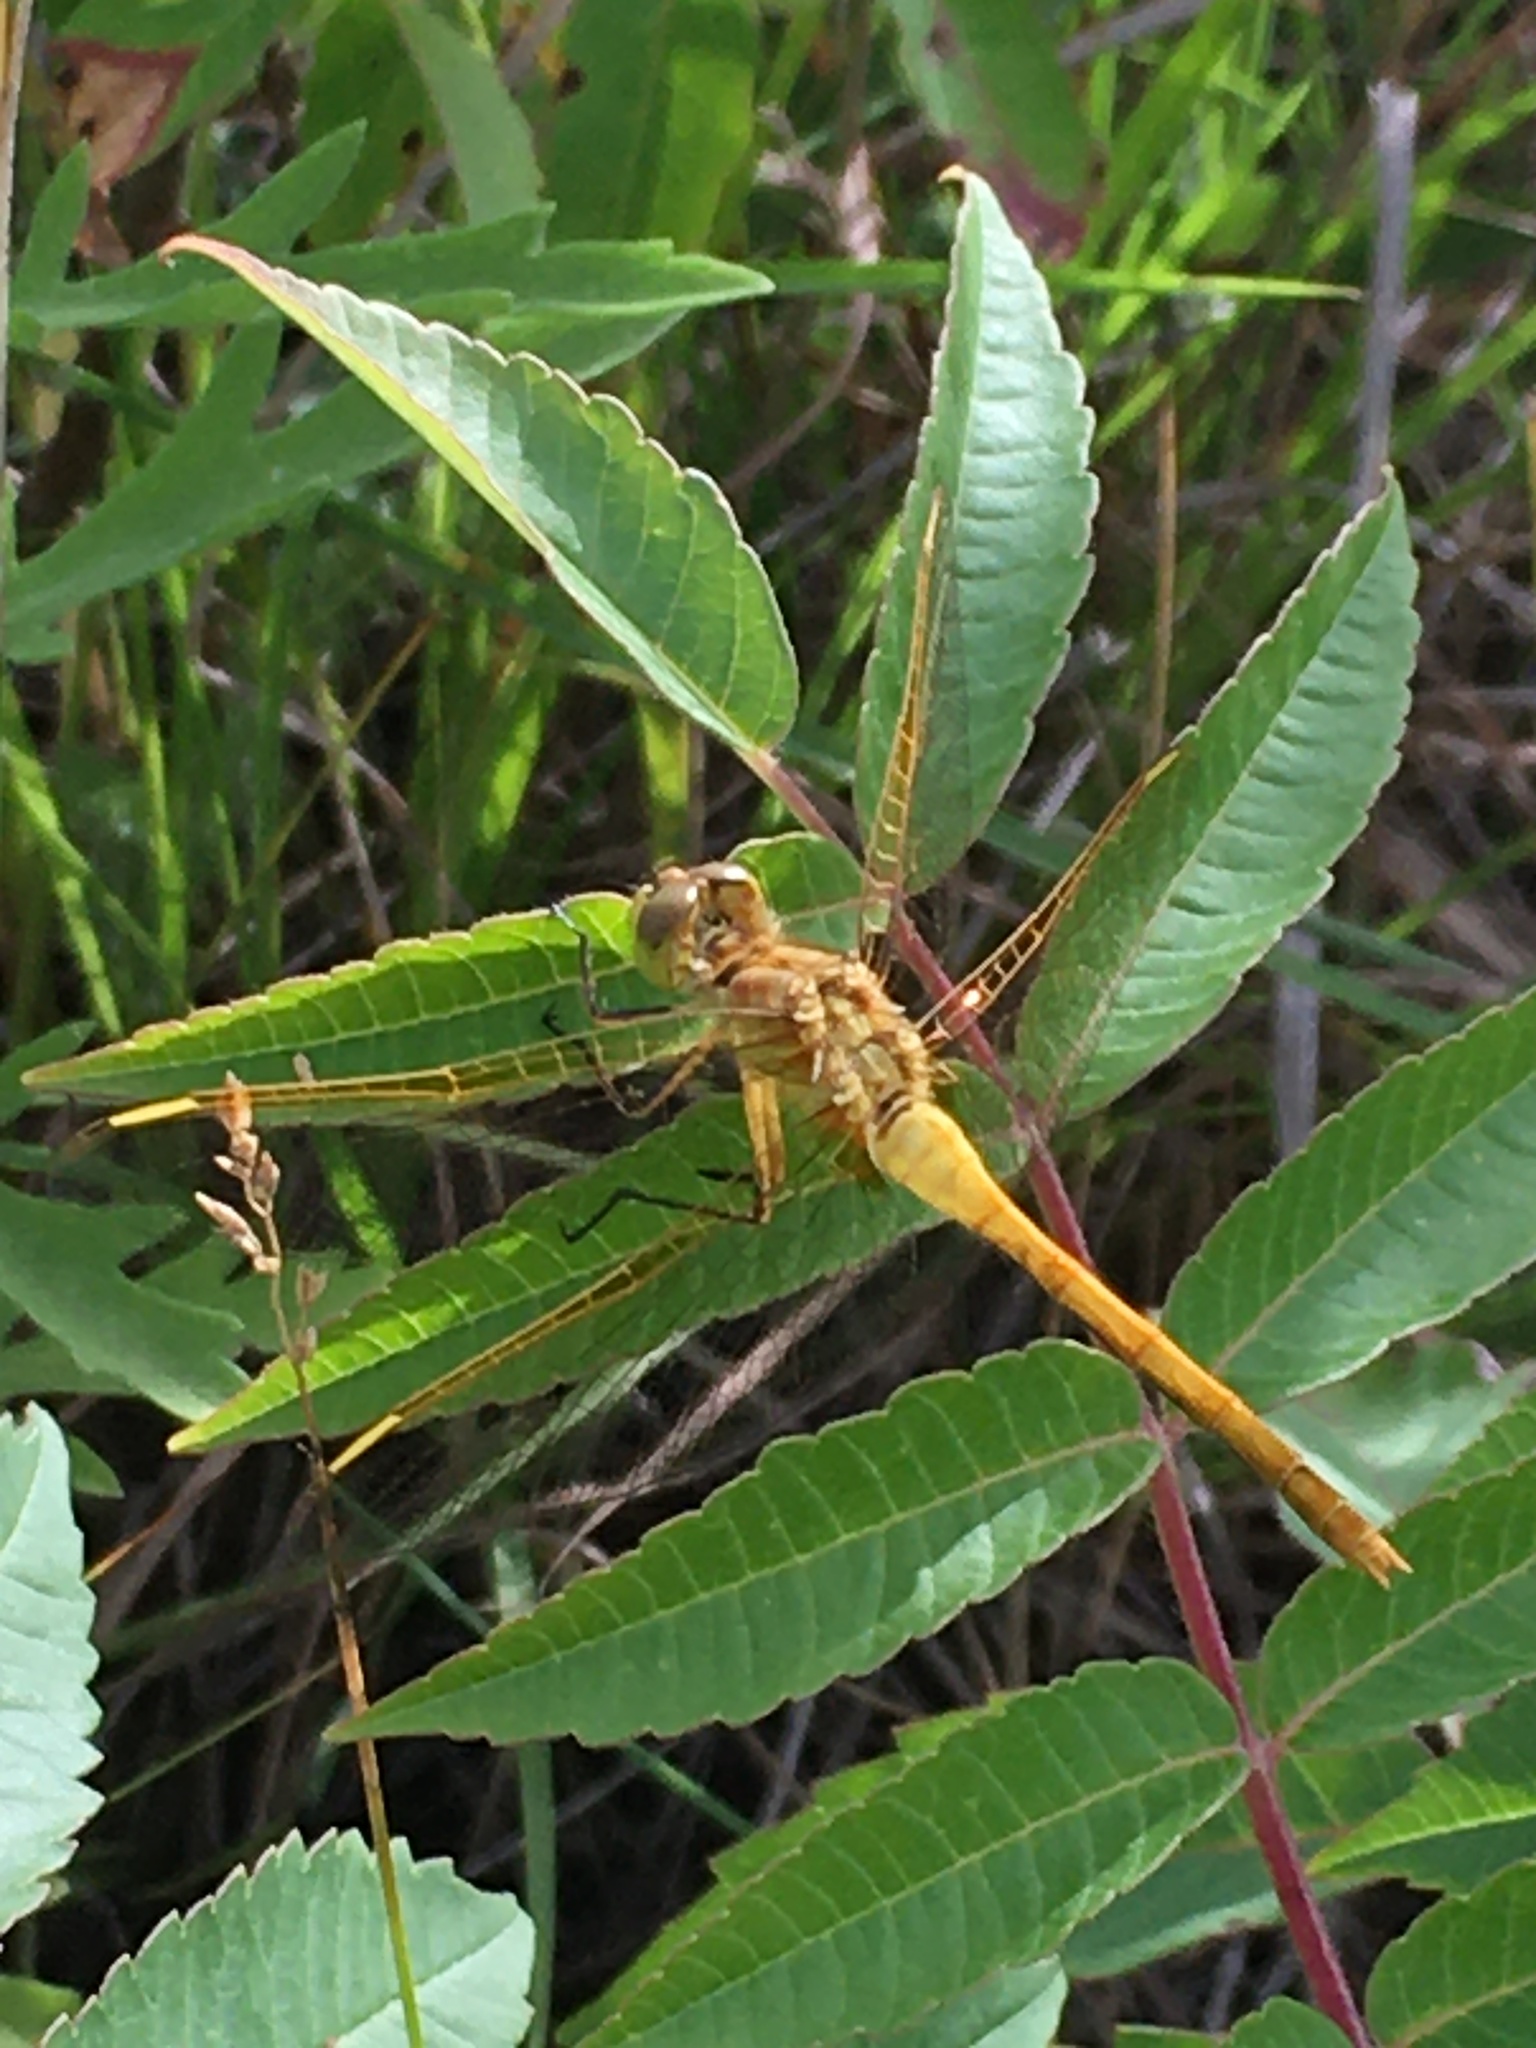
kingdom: Animalia
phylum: Arthropoda
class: Insecta
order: Odonata
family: Libellulidae
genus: Sympetrum
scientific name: Sympetrum costiferum
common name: Saffron-winged meadowhawk
